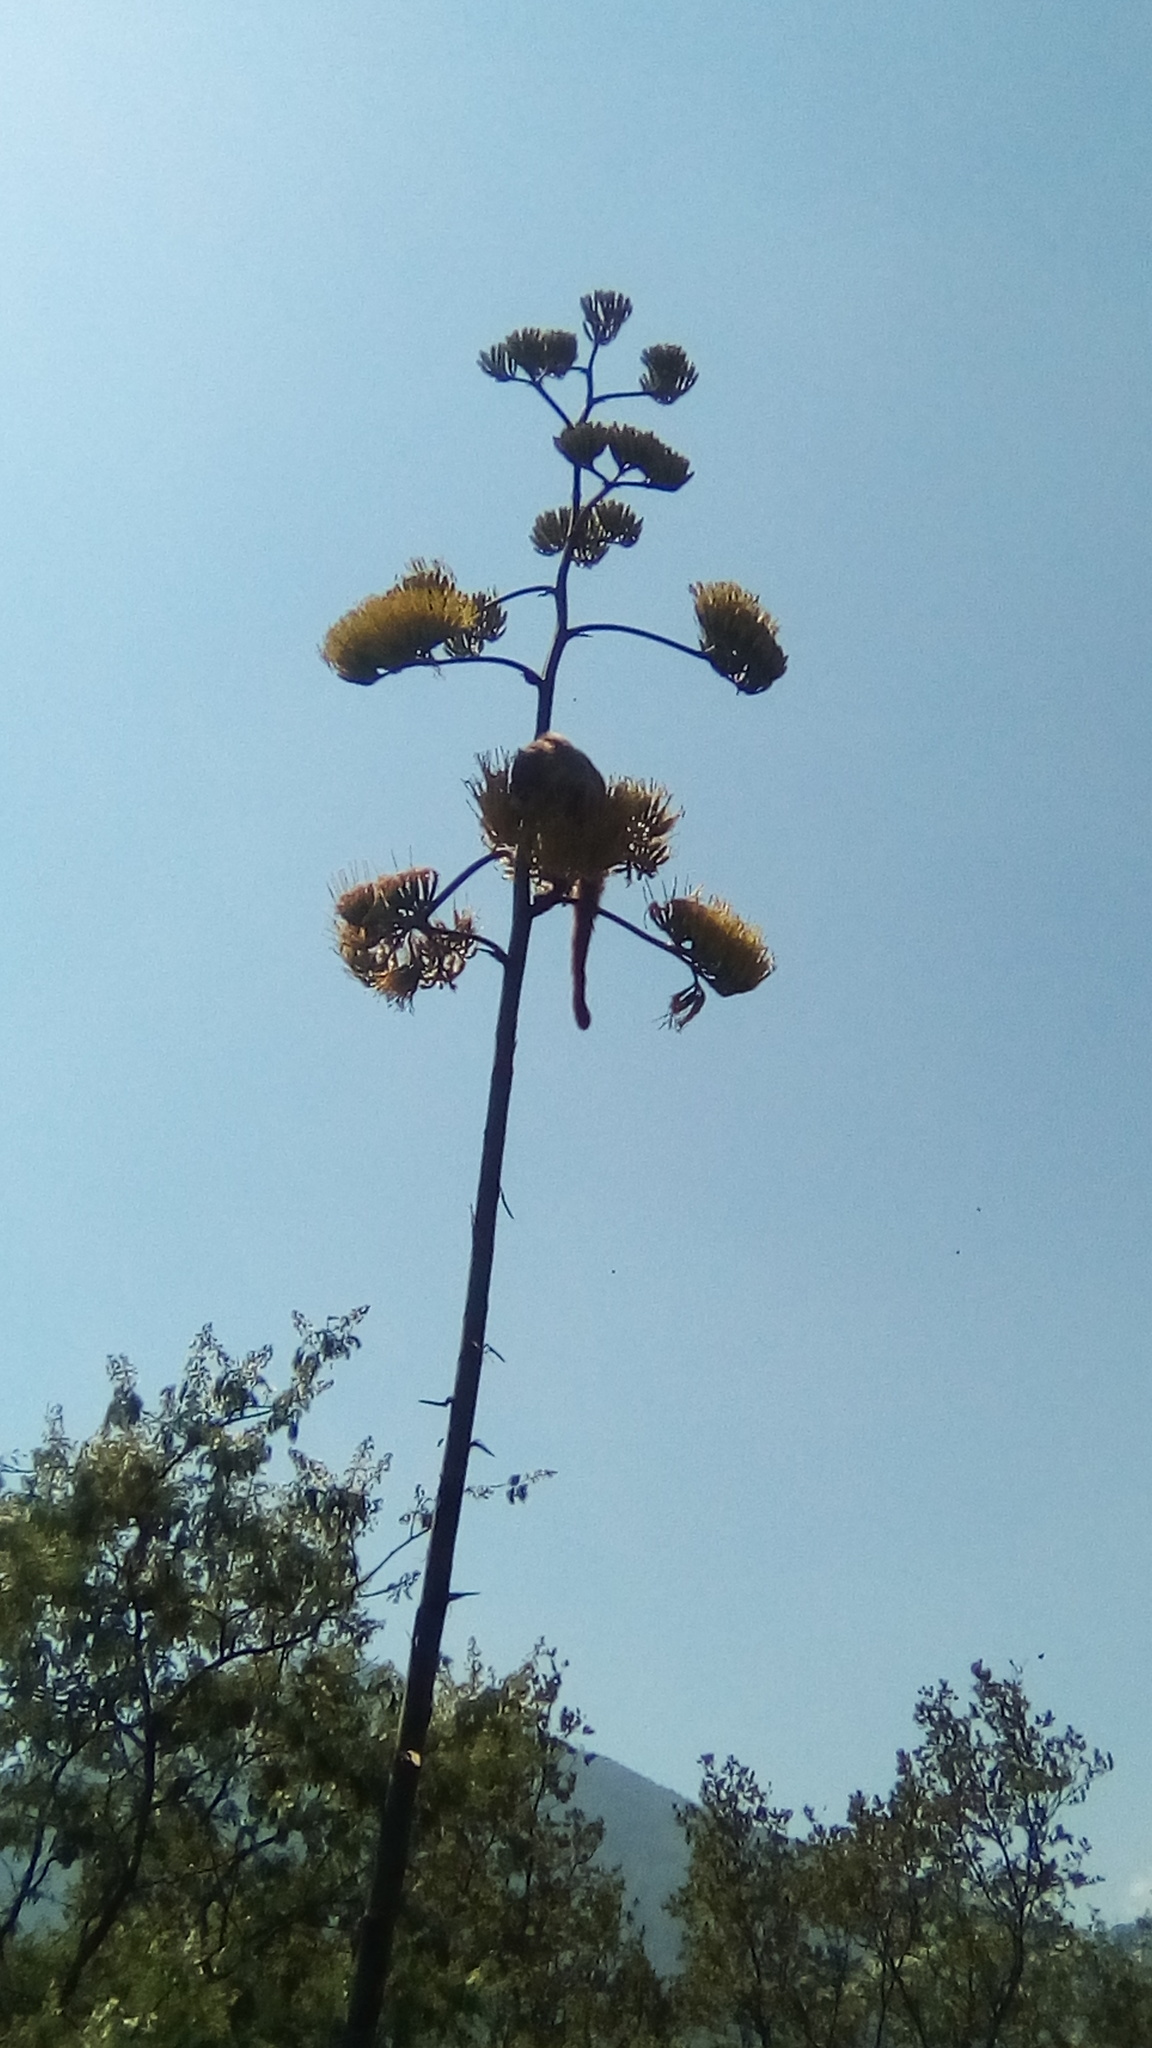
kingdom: Animalia
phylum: Chordata
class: Mammalia
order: Carnivora
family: Procyonidae
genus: Nasua
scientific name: Nasua narica
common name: White-nosed coati
